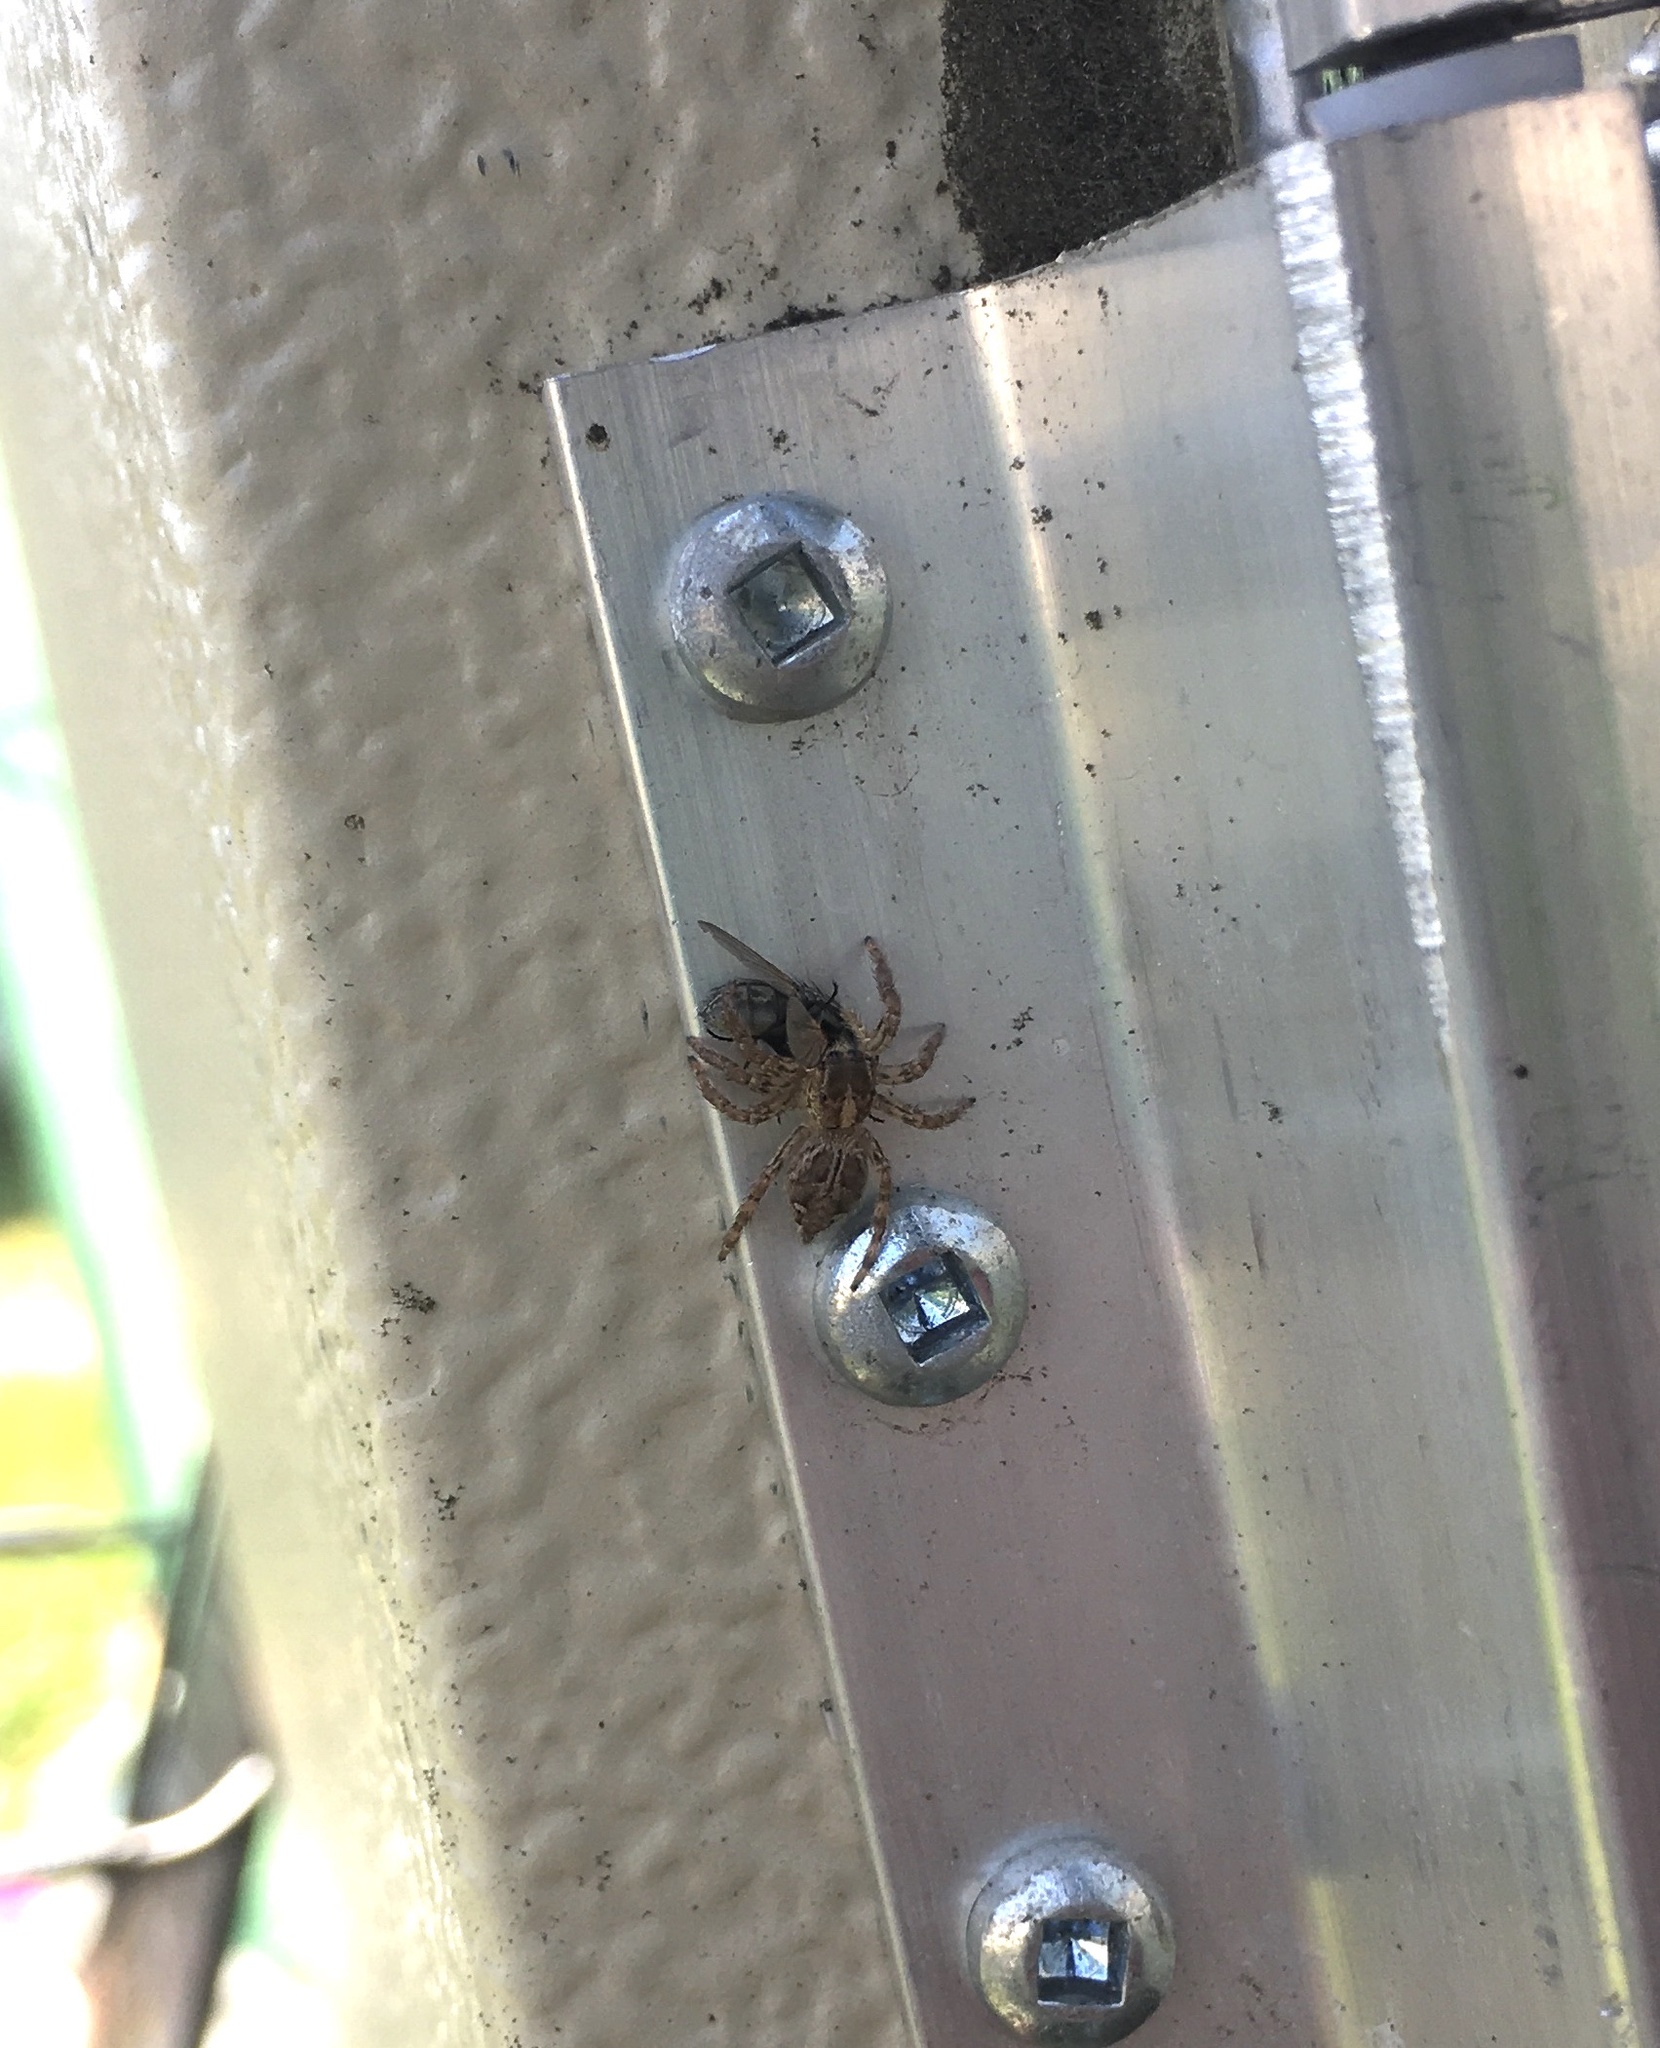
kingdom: Animalia
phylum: Arthropoda
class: Arachnida
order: Araneae
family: Salticidae
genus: Plexippus
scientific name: Plexippus paykulli
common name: Pantropical jumper
